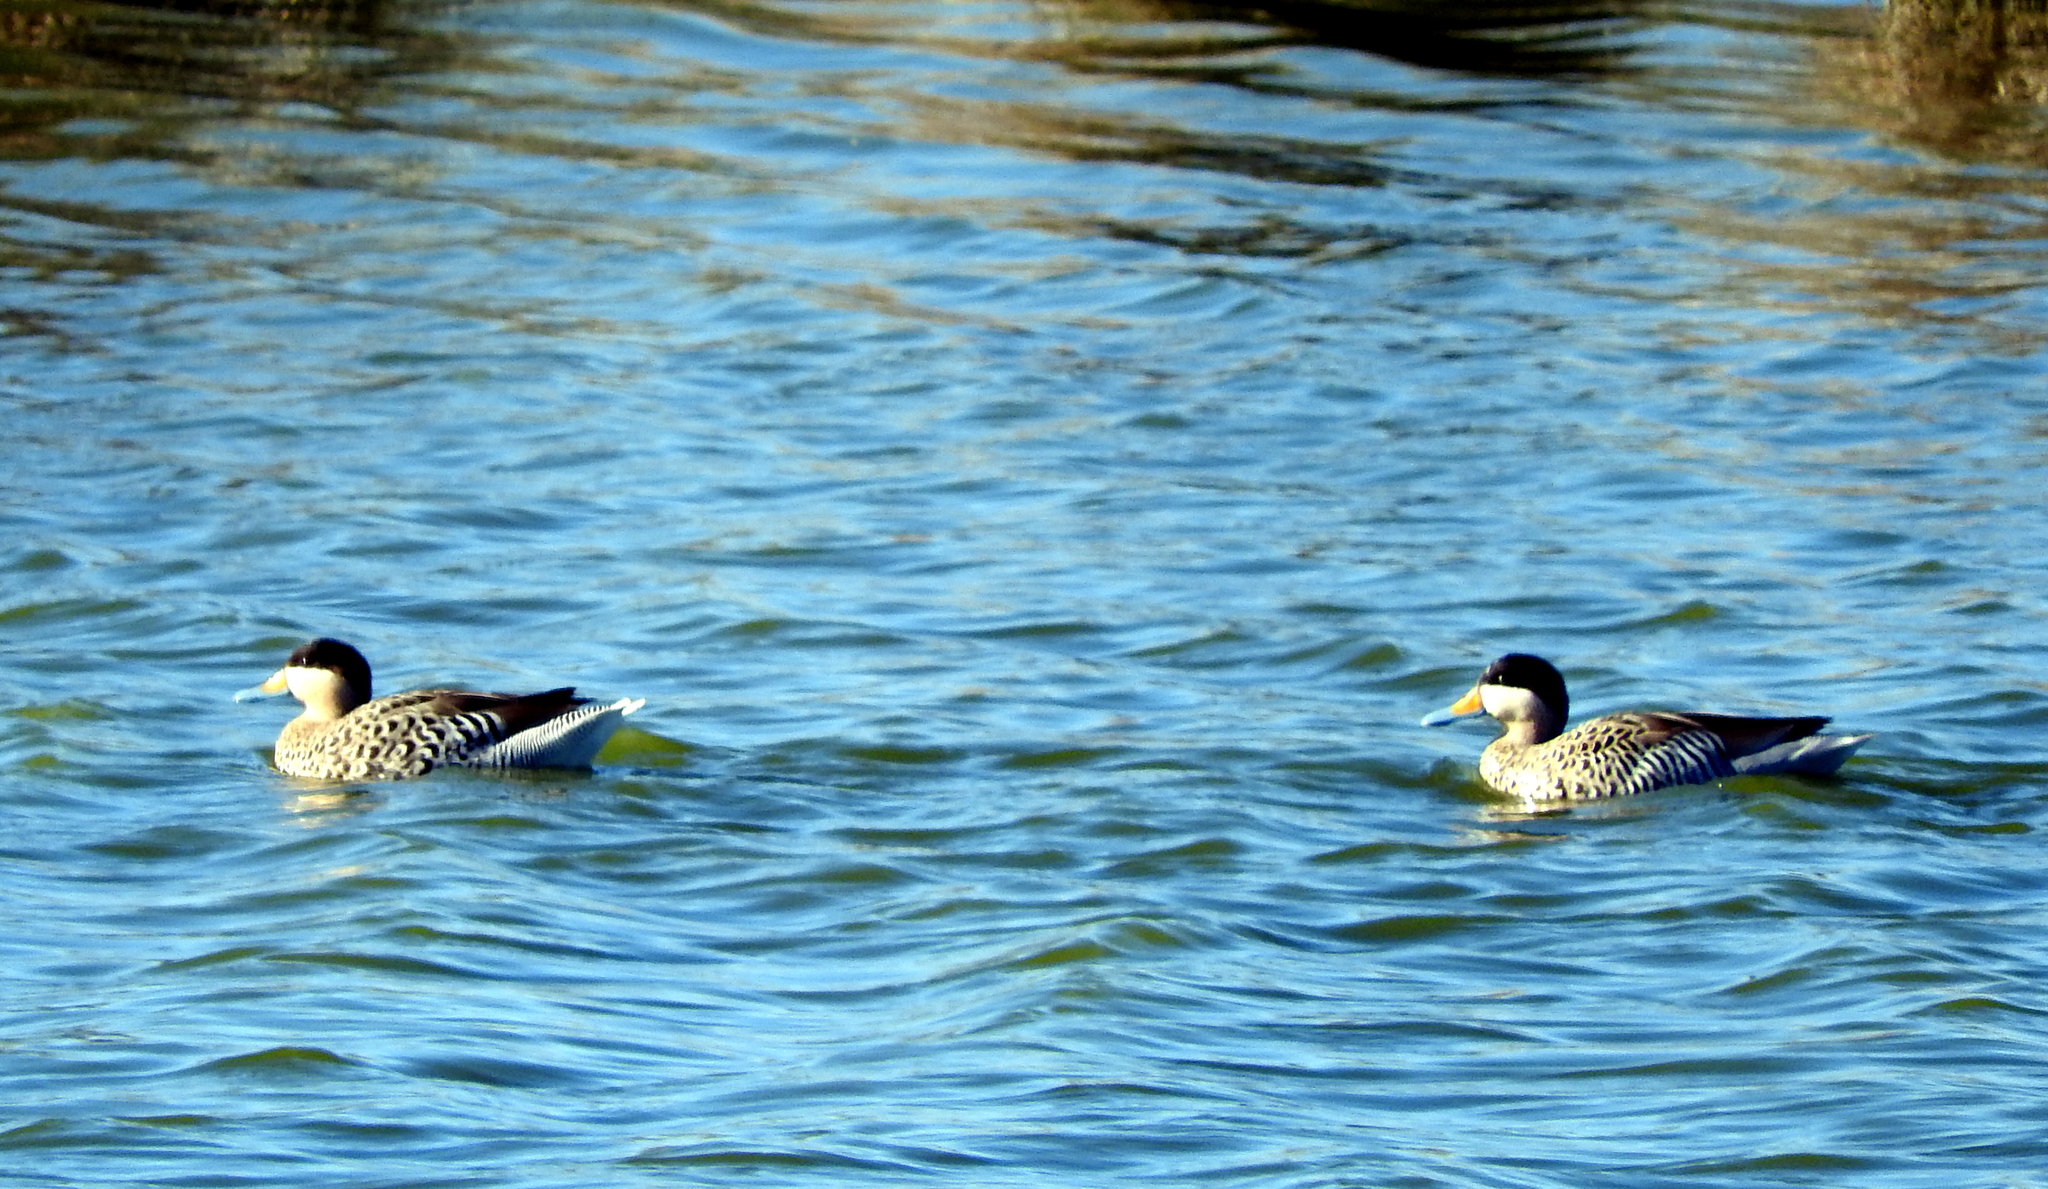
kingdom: Animalia
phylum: Chordata
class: Aves
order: Anseriformes
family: Anatidae
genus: Spatula
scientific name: Spatula versicolor
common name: Silver teal
